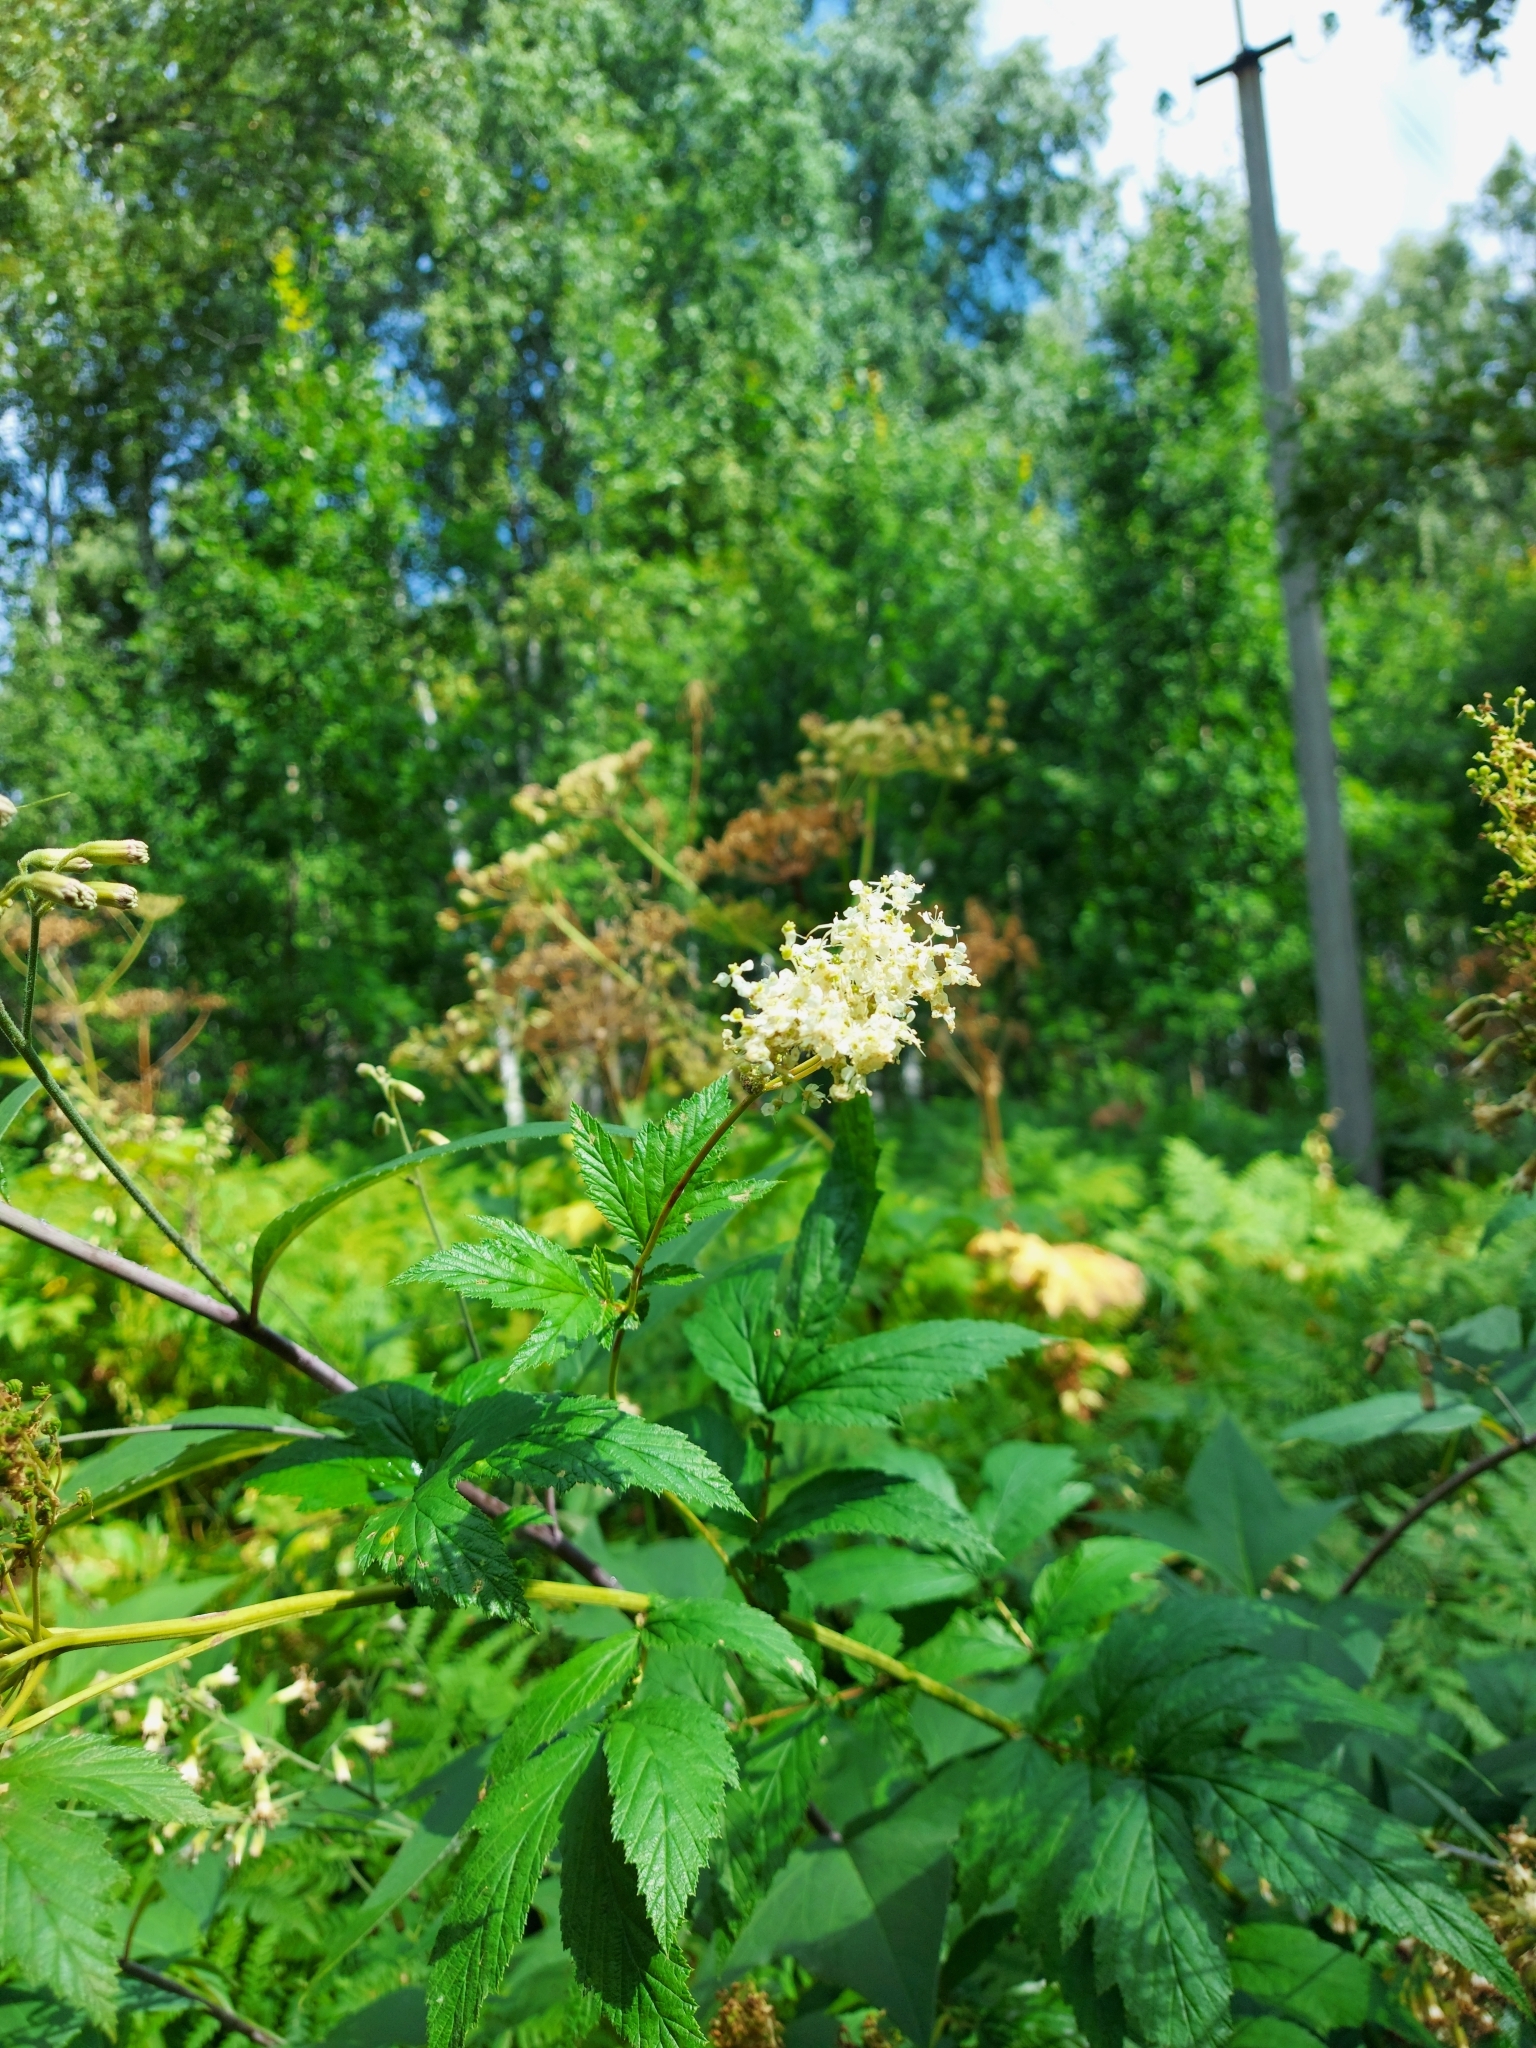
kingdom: Plantae
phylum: Tracheophyta
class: Magnoliopsida
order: Rosales
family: Rosaceae
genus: Filipendula
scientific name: Filipendula ulmaria
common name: Meadowsweet
